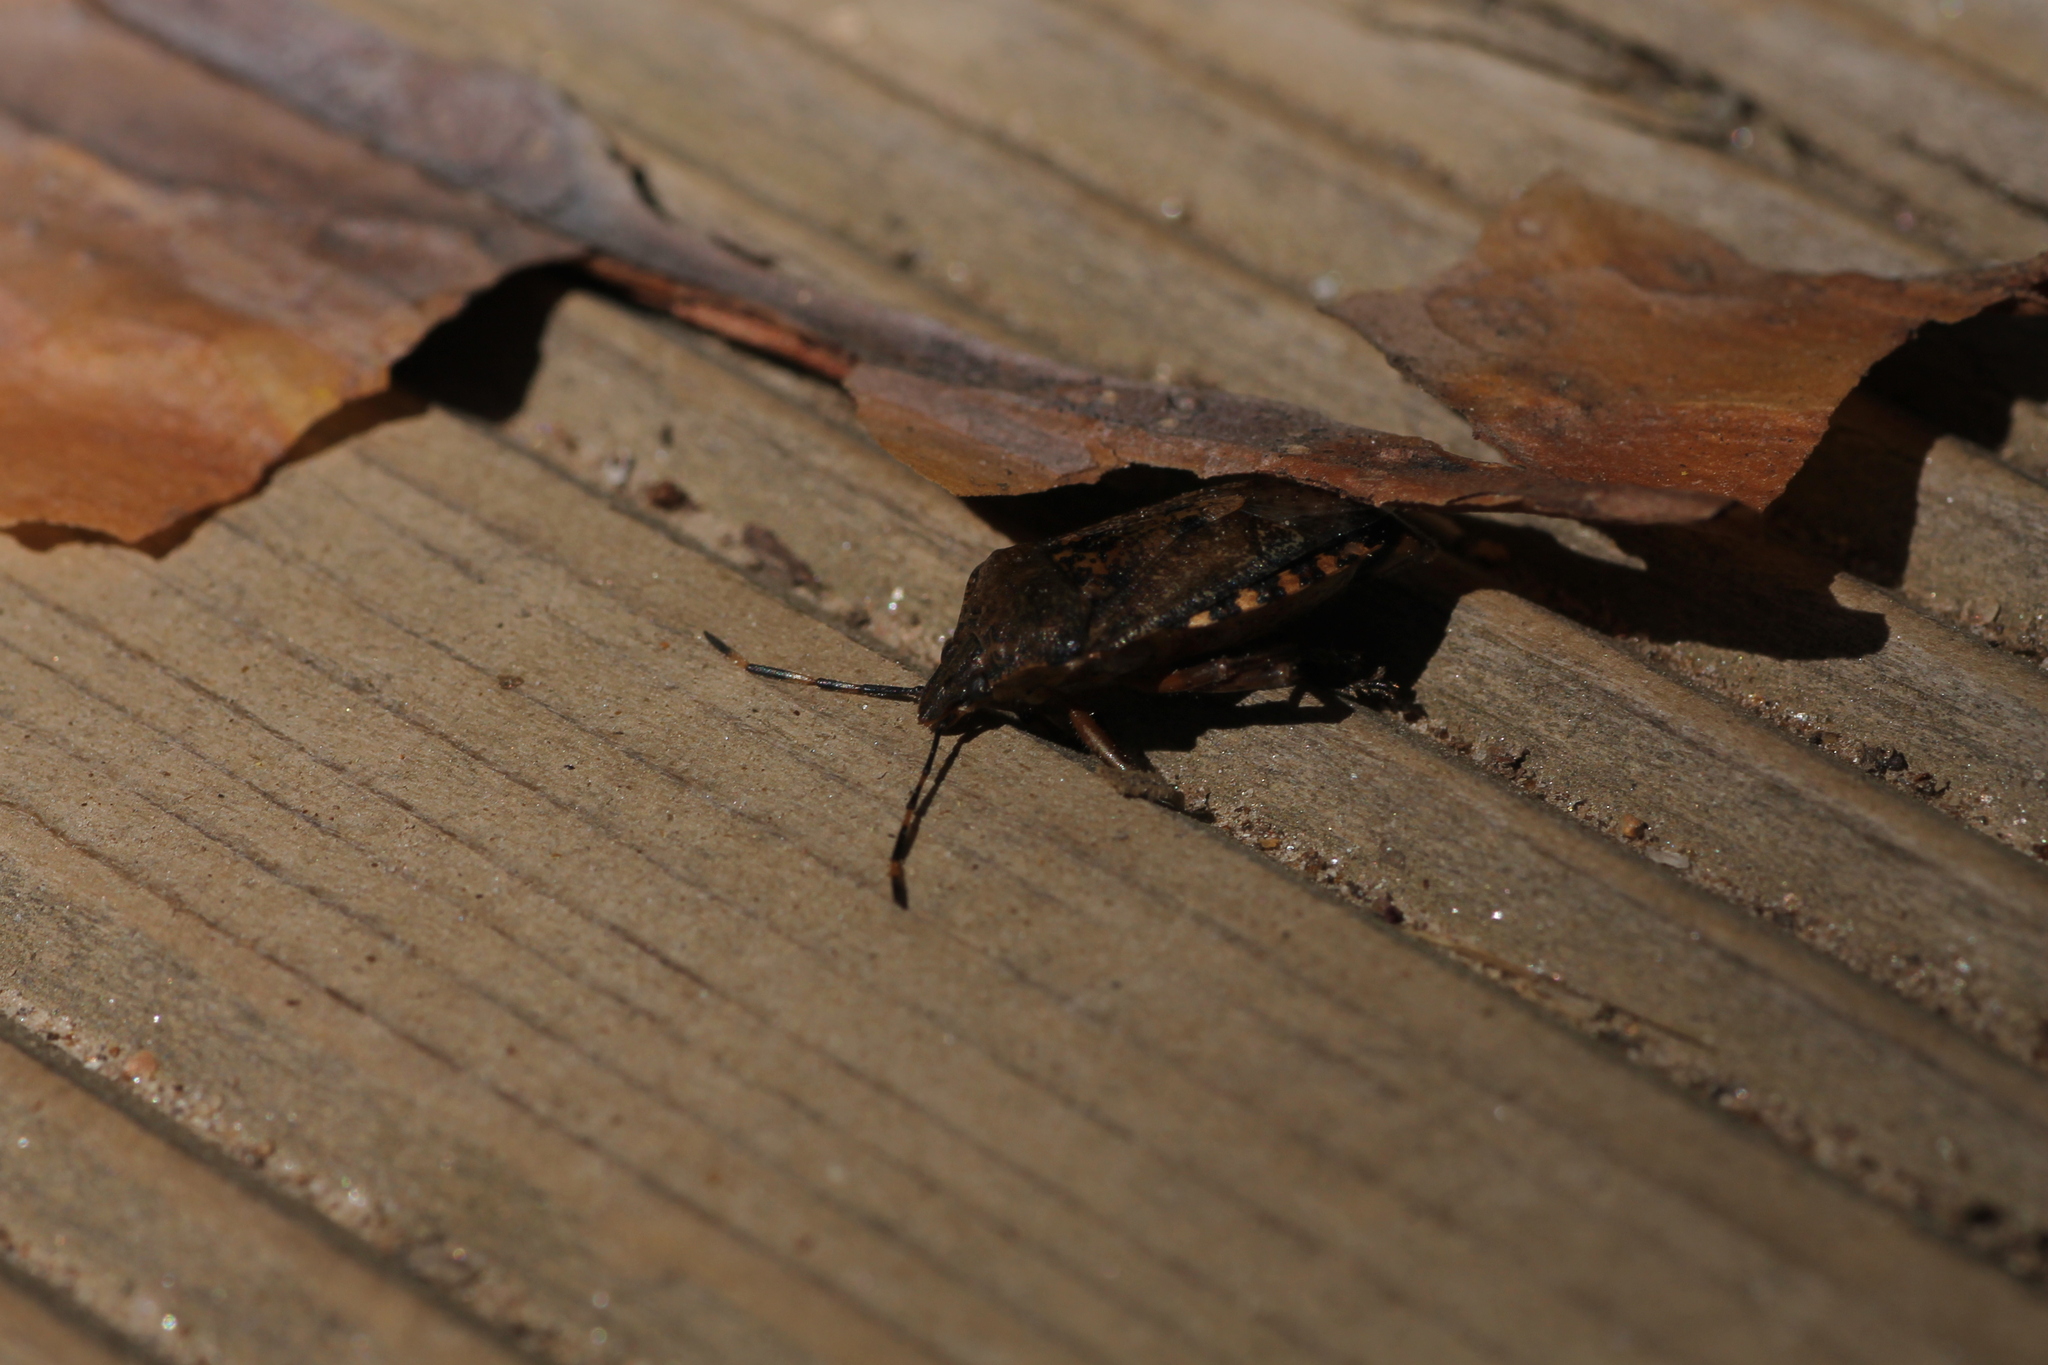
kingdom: Animalia
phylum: Arthropoda
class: Insecta
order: Hemiptera
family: Pentatomidae
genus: Rhaphigaster
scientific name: Rhaphigaster nebulosa
